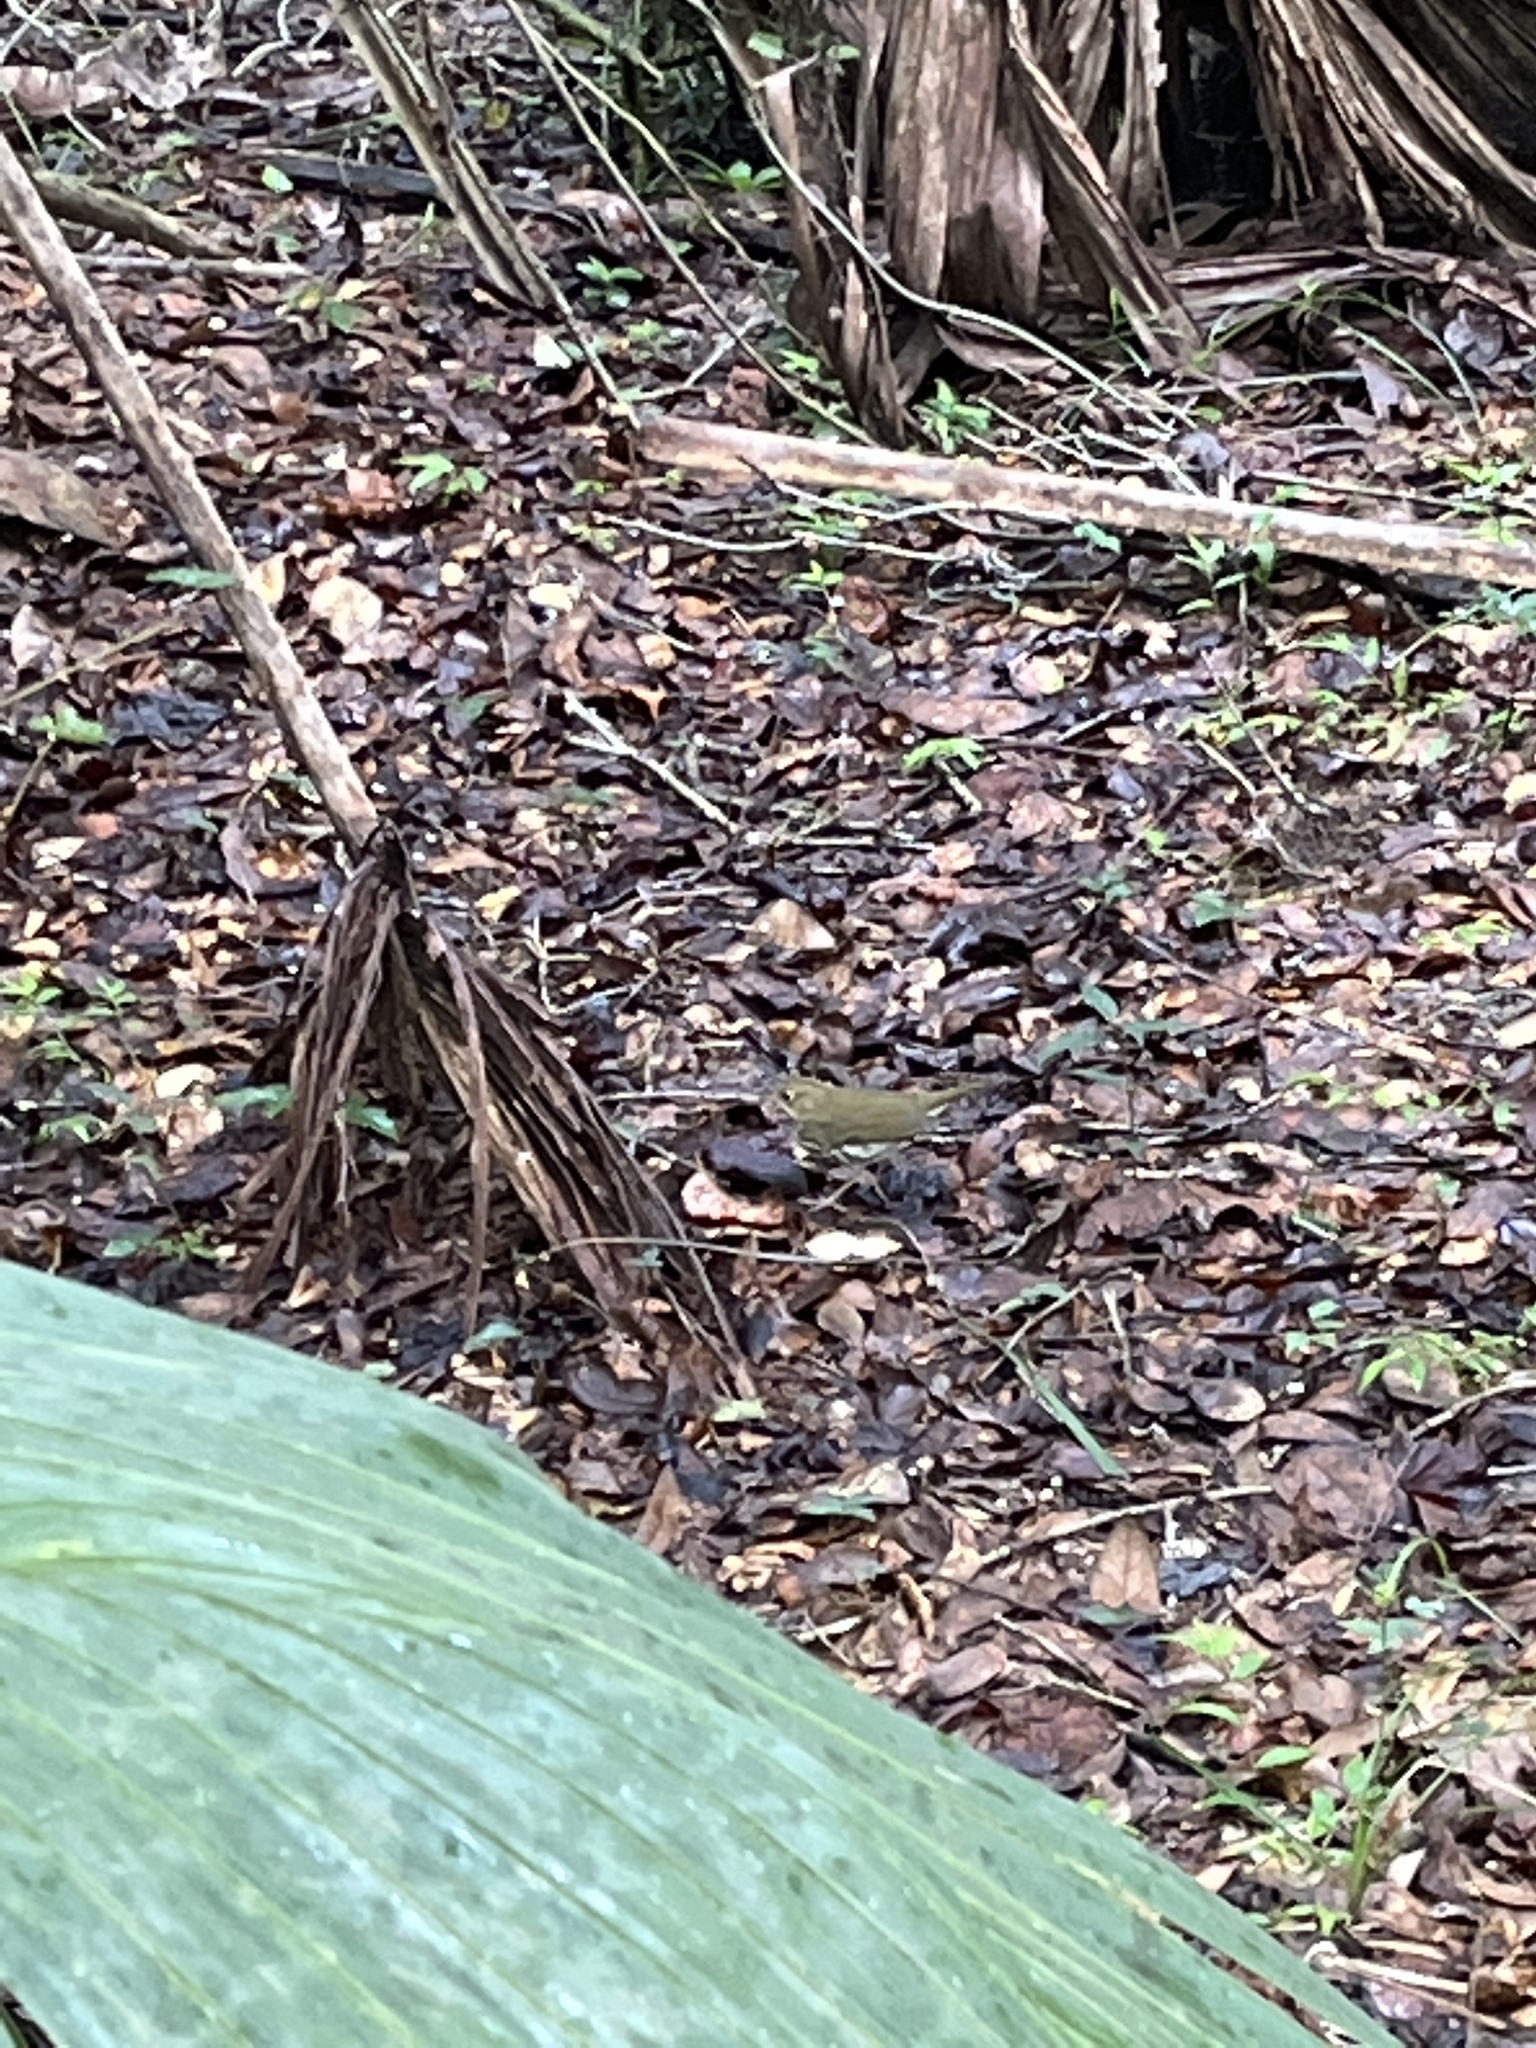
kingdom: Animalia
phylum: Chordata
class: Aves
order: Passeriformes
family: Parulidae
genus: Seiurus
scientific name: Seiurus aurocapilla
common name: Ovenbird
